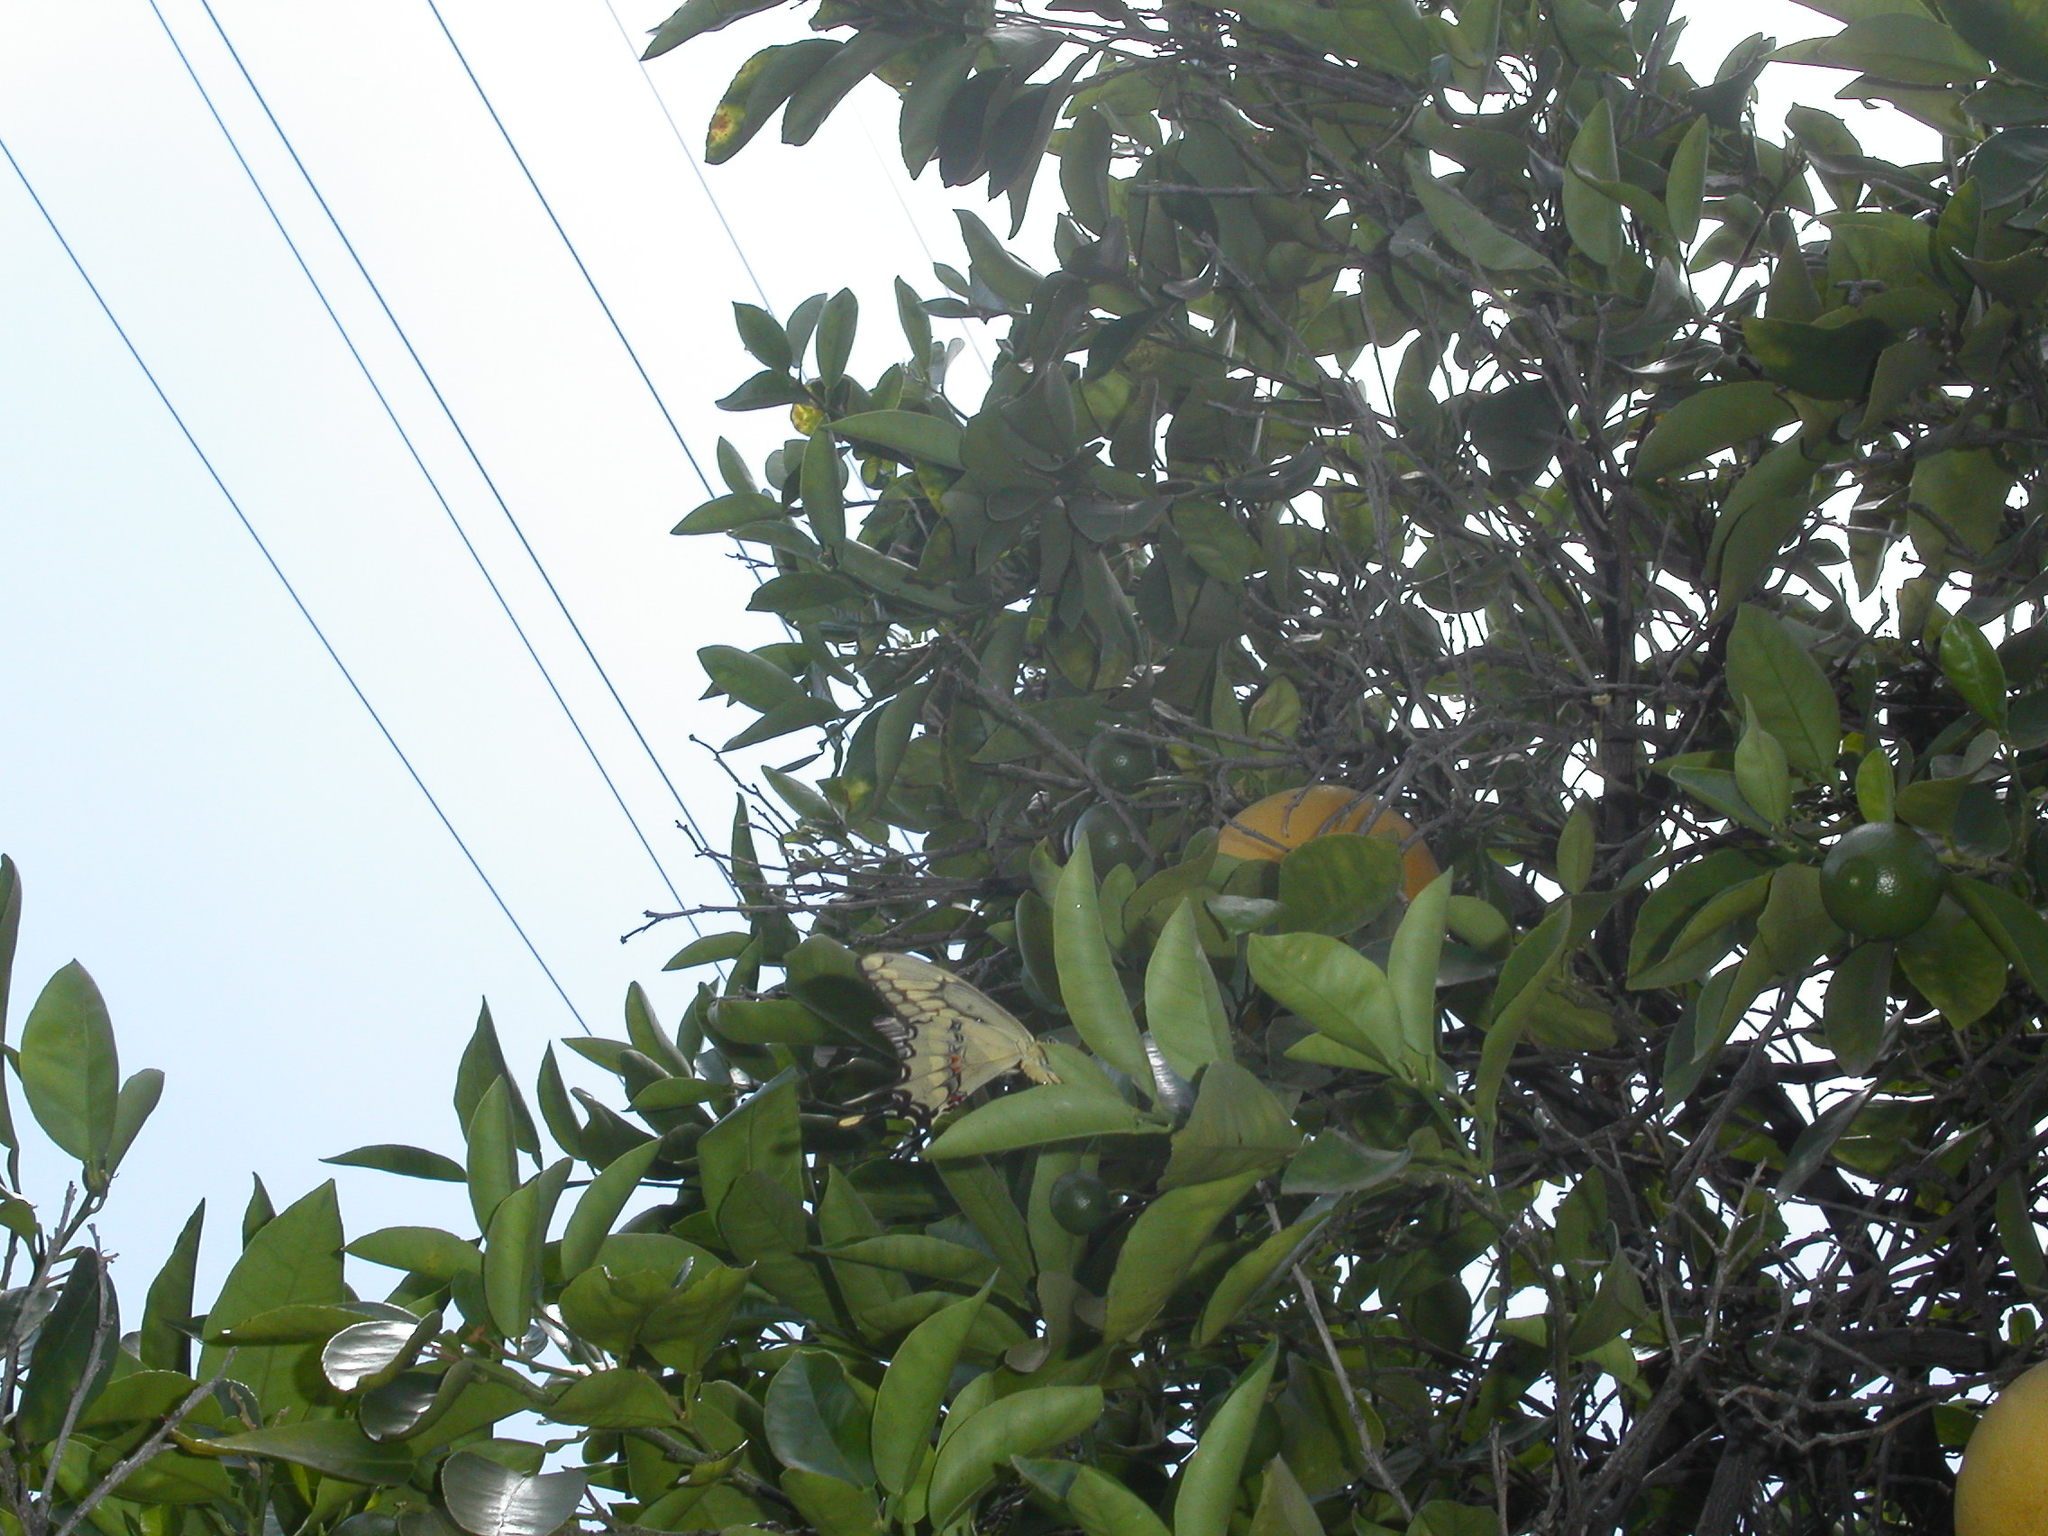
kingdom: Animalia
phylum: Arthropoda
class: Insecta
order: Lepidoptera
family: Papilionidae
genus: Papilio
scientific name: Papilio rumiko
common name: Western giant swallowtail
